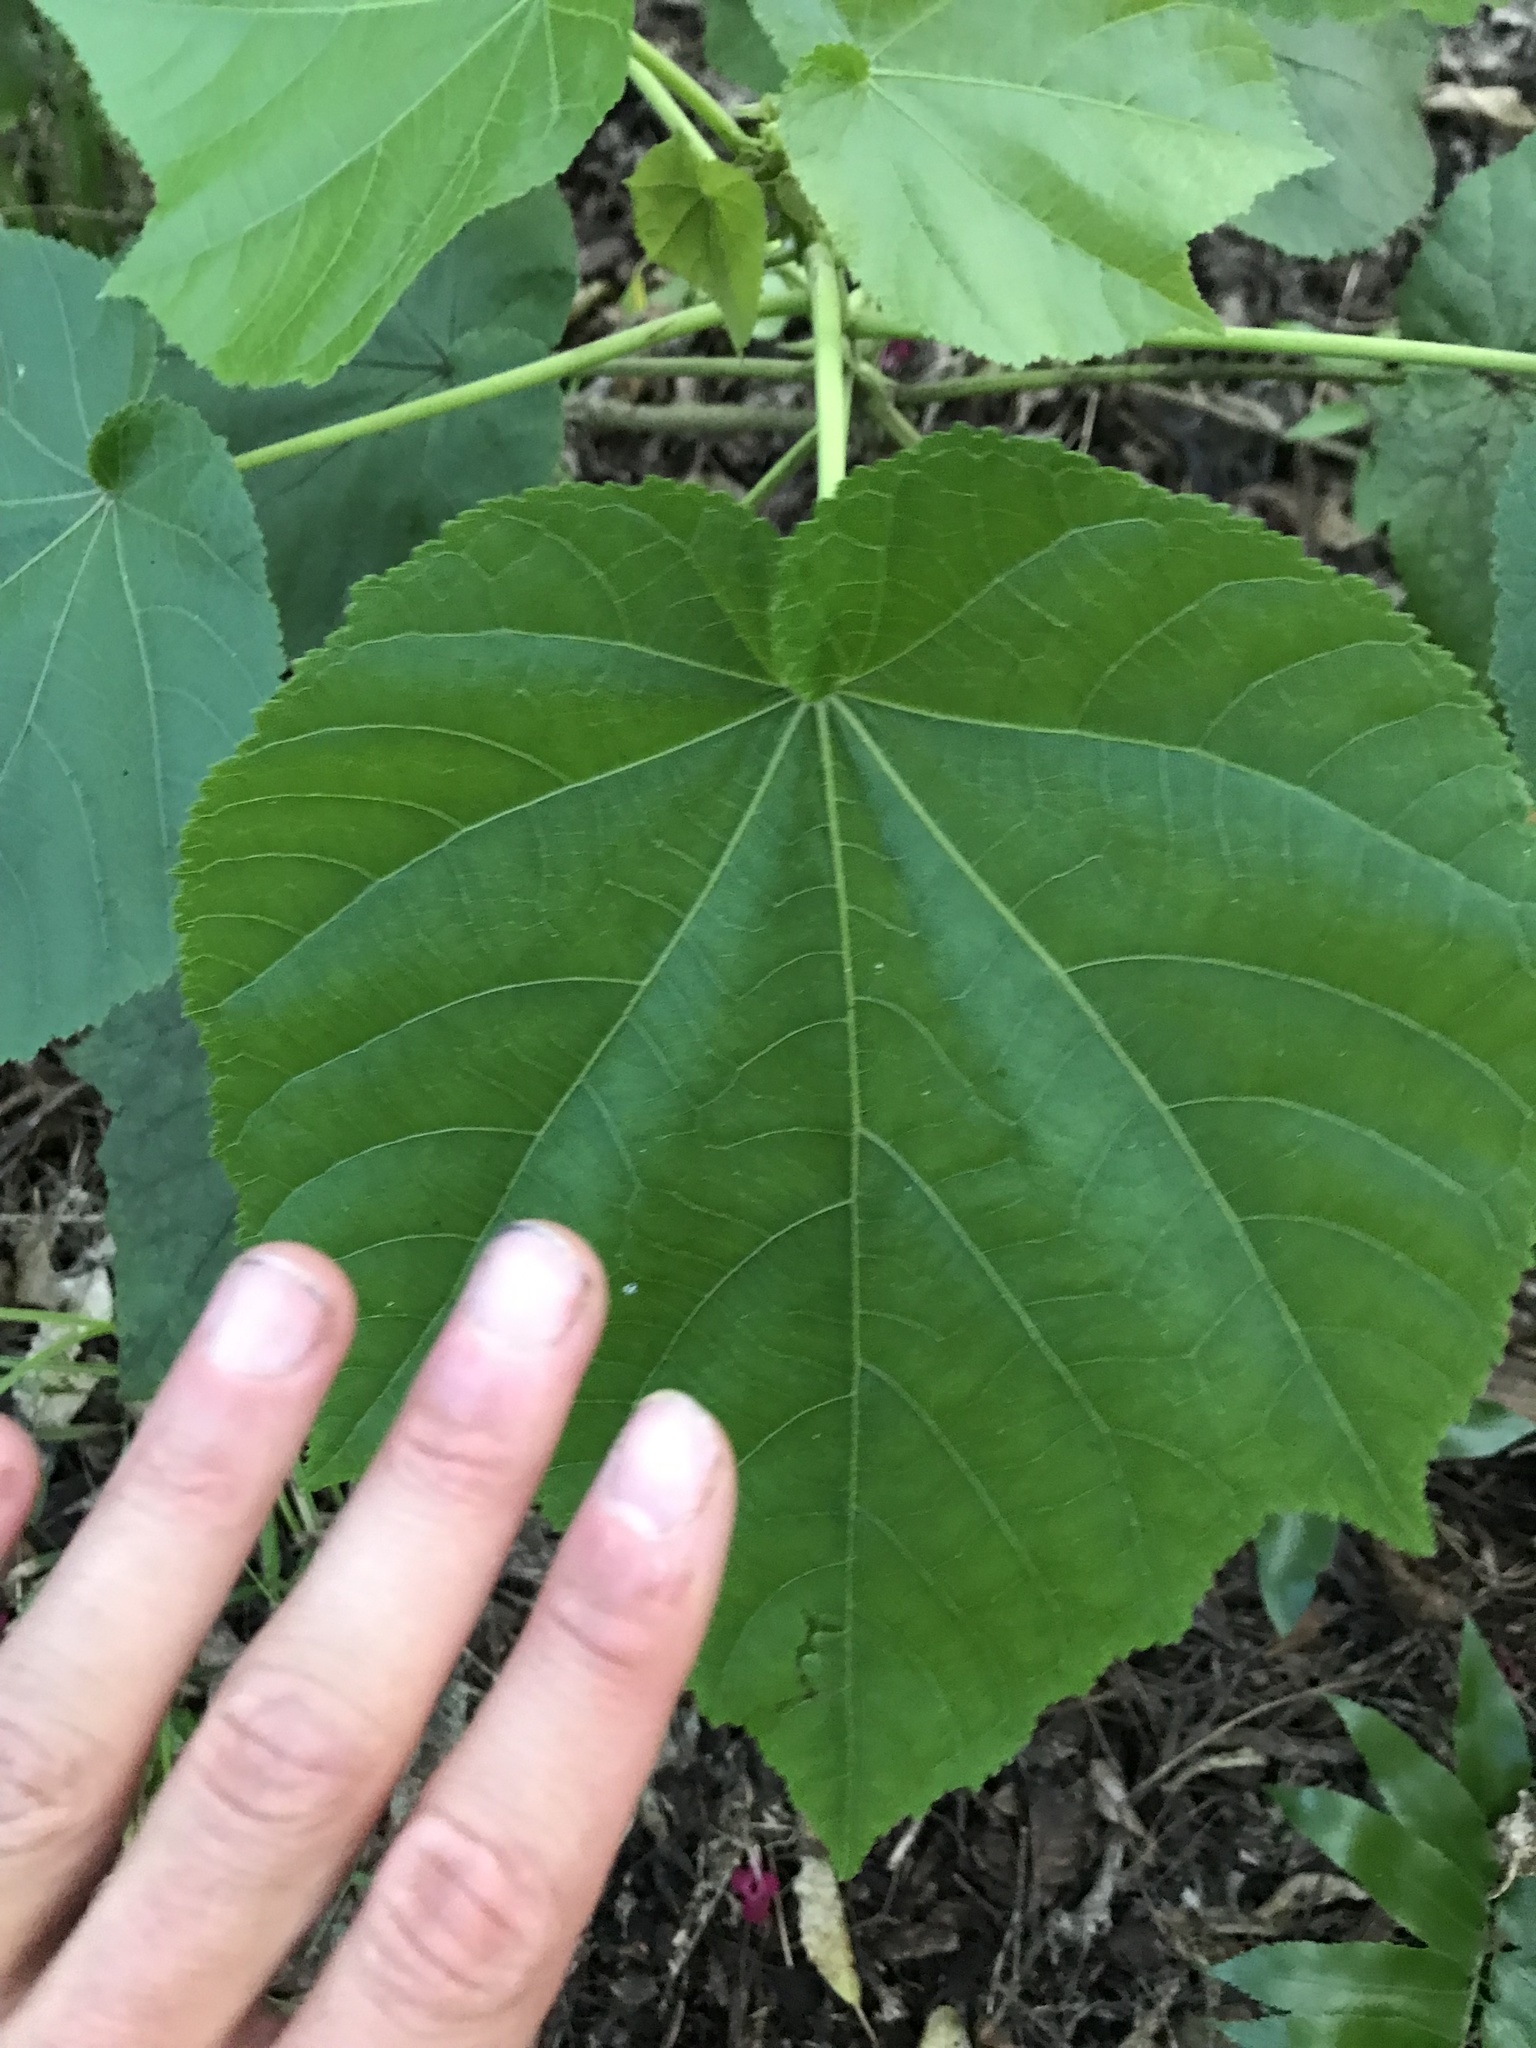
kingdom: Plantae
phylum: Tracheophyta
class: Magnoliopsida
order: Malvales
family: Malvaceae
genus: Entelea
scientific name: Entelea arborescens
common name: New zealand-mulberry
